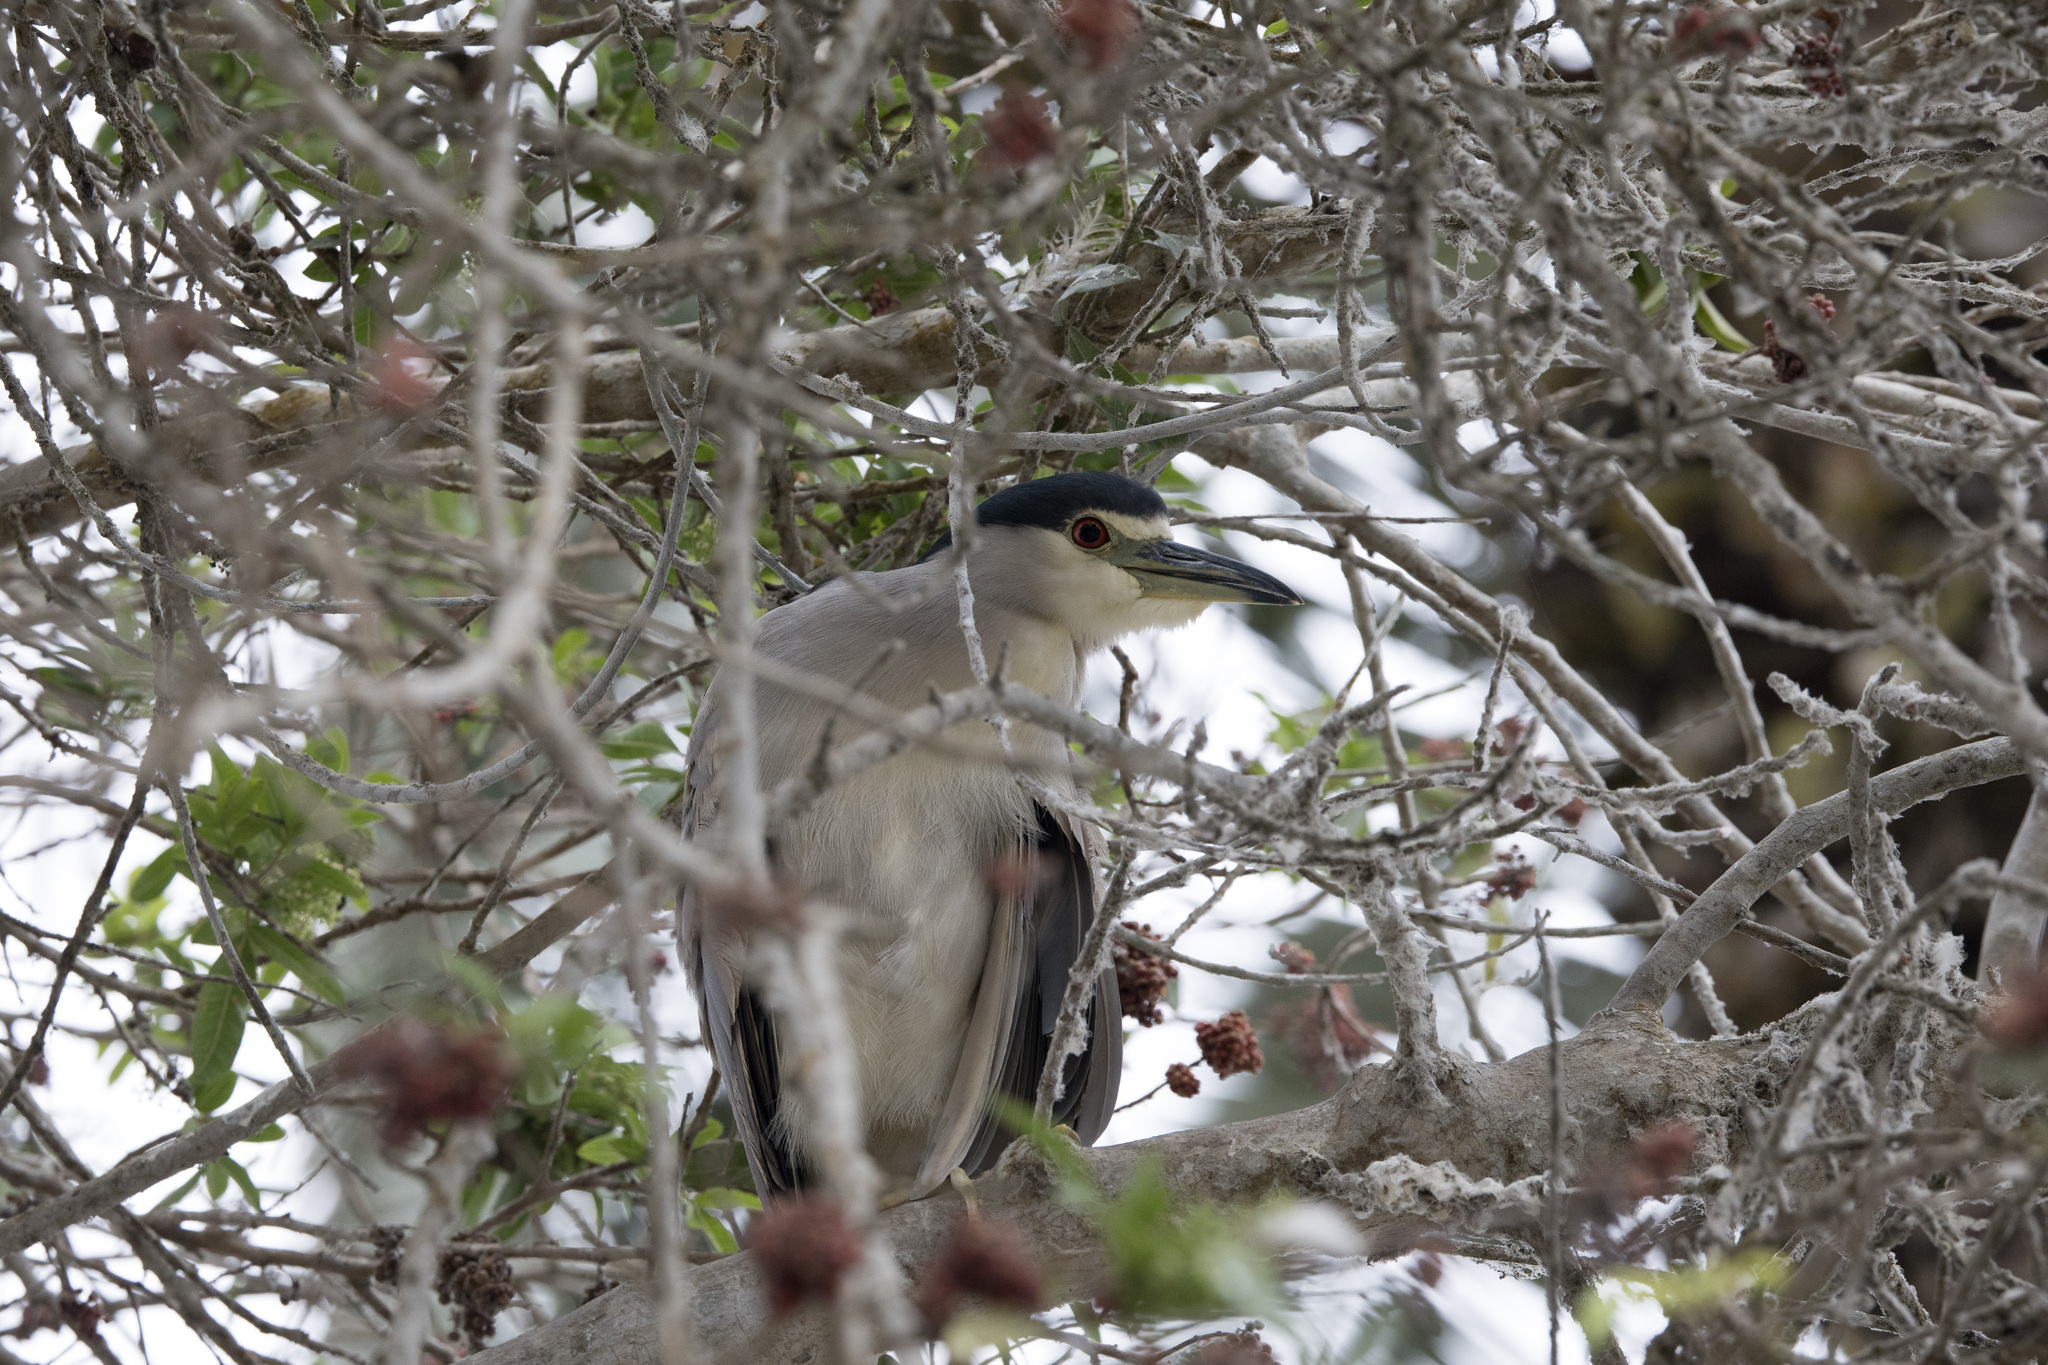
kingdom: Animalia
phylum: Chordata
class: Aves
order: Pelecaniformes
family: Ardeidae
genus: Nycticorax
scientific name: Nycticorax nycticorax
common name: Black-crowned night heron
